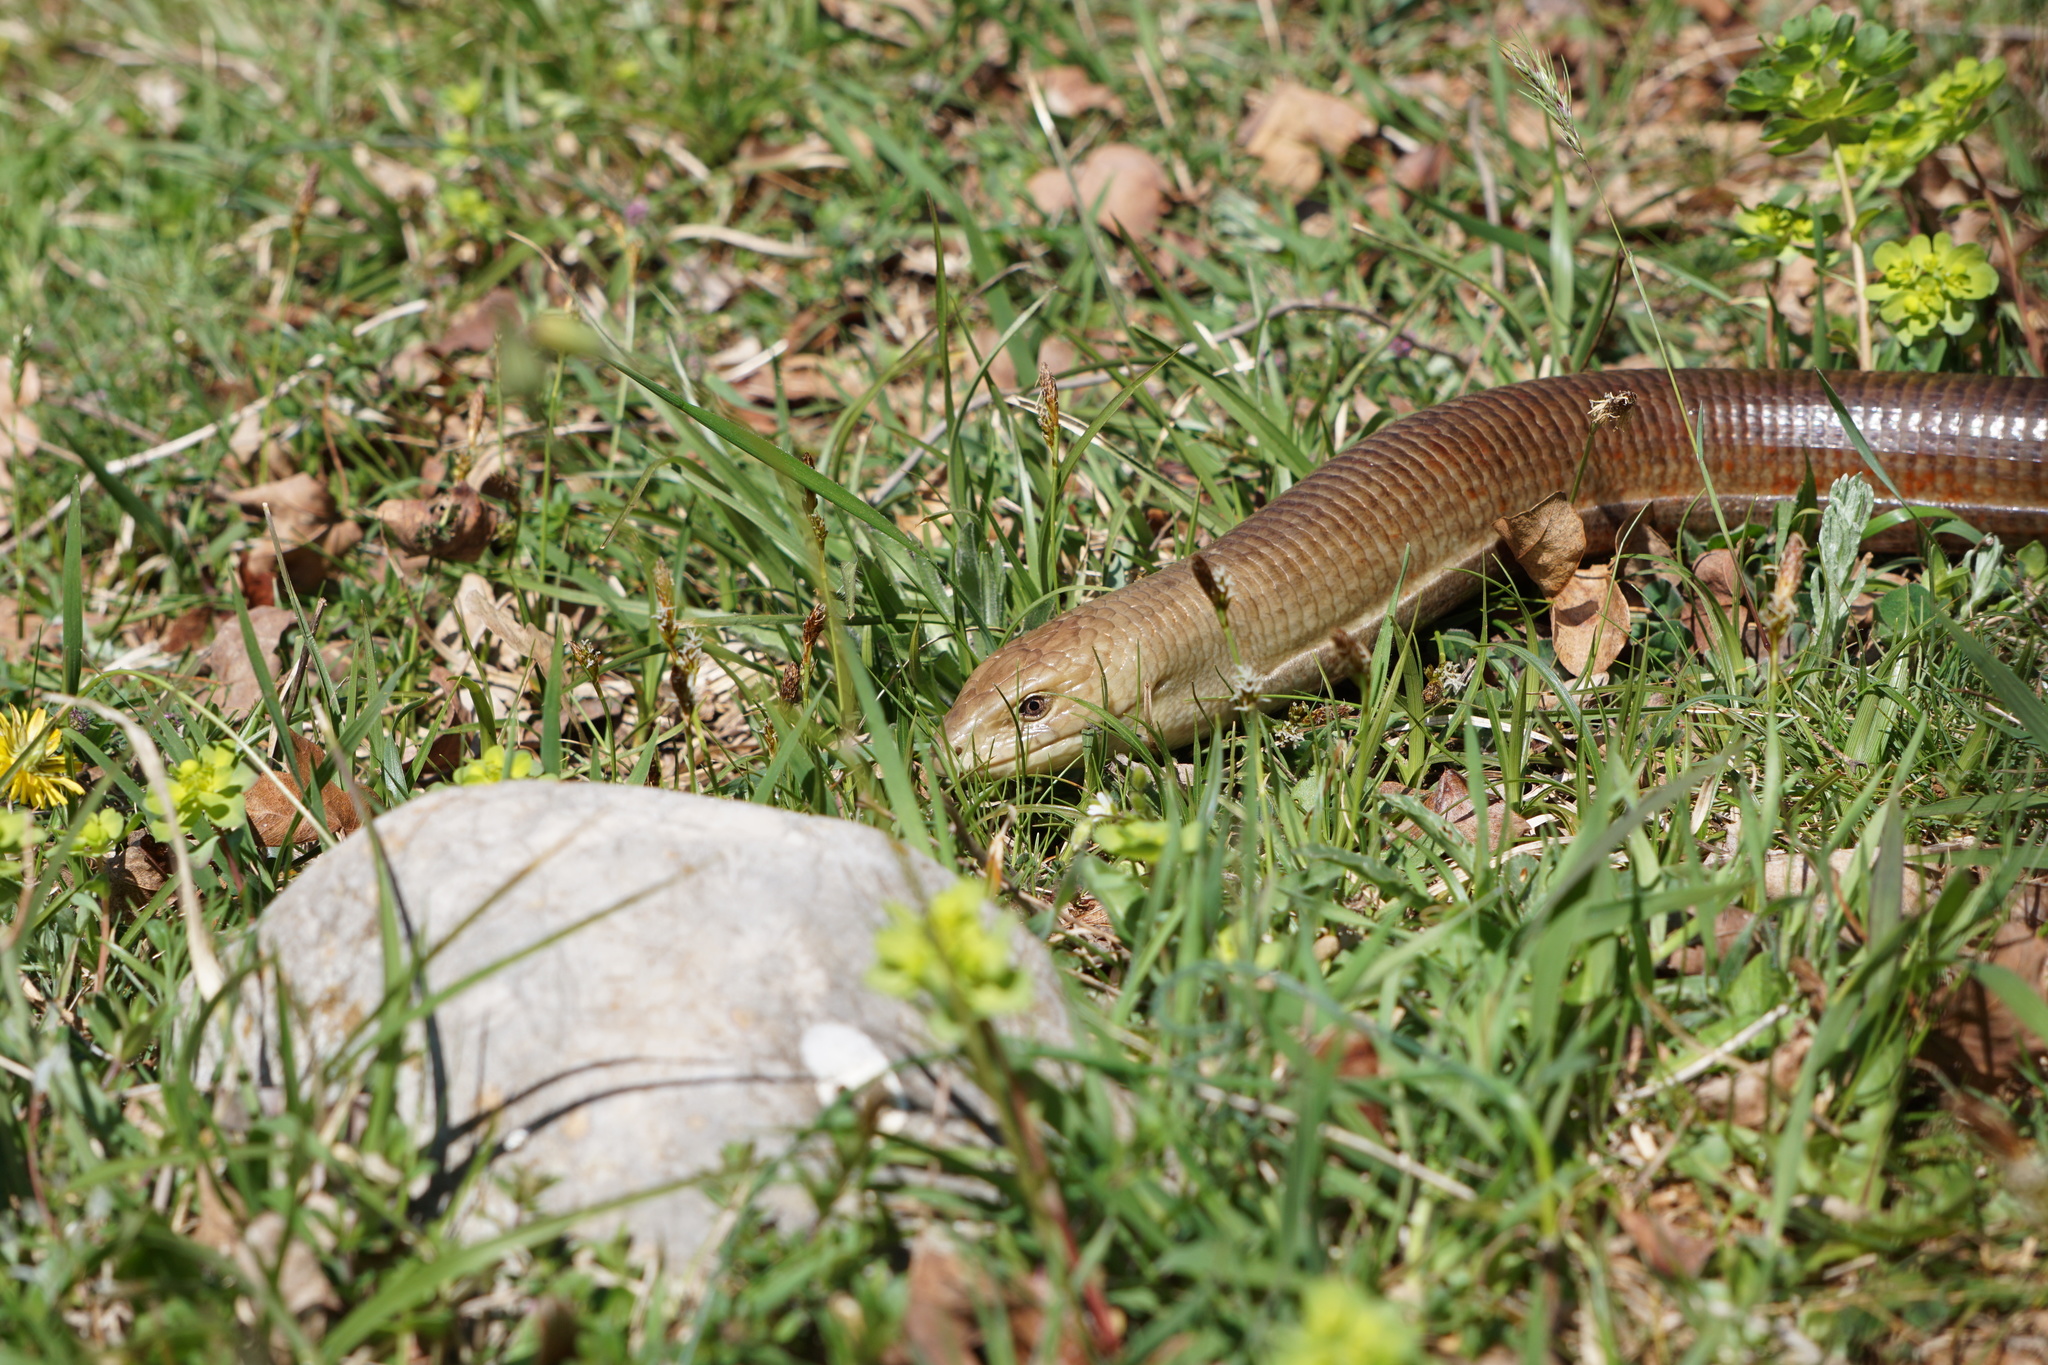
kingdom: Animalia
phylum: Chordata
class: Squamata
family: Anguidae
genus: Pseudopus
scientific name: Pseudopus apodus
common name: European glass lizard
